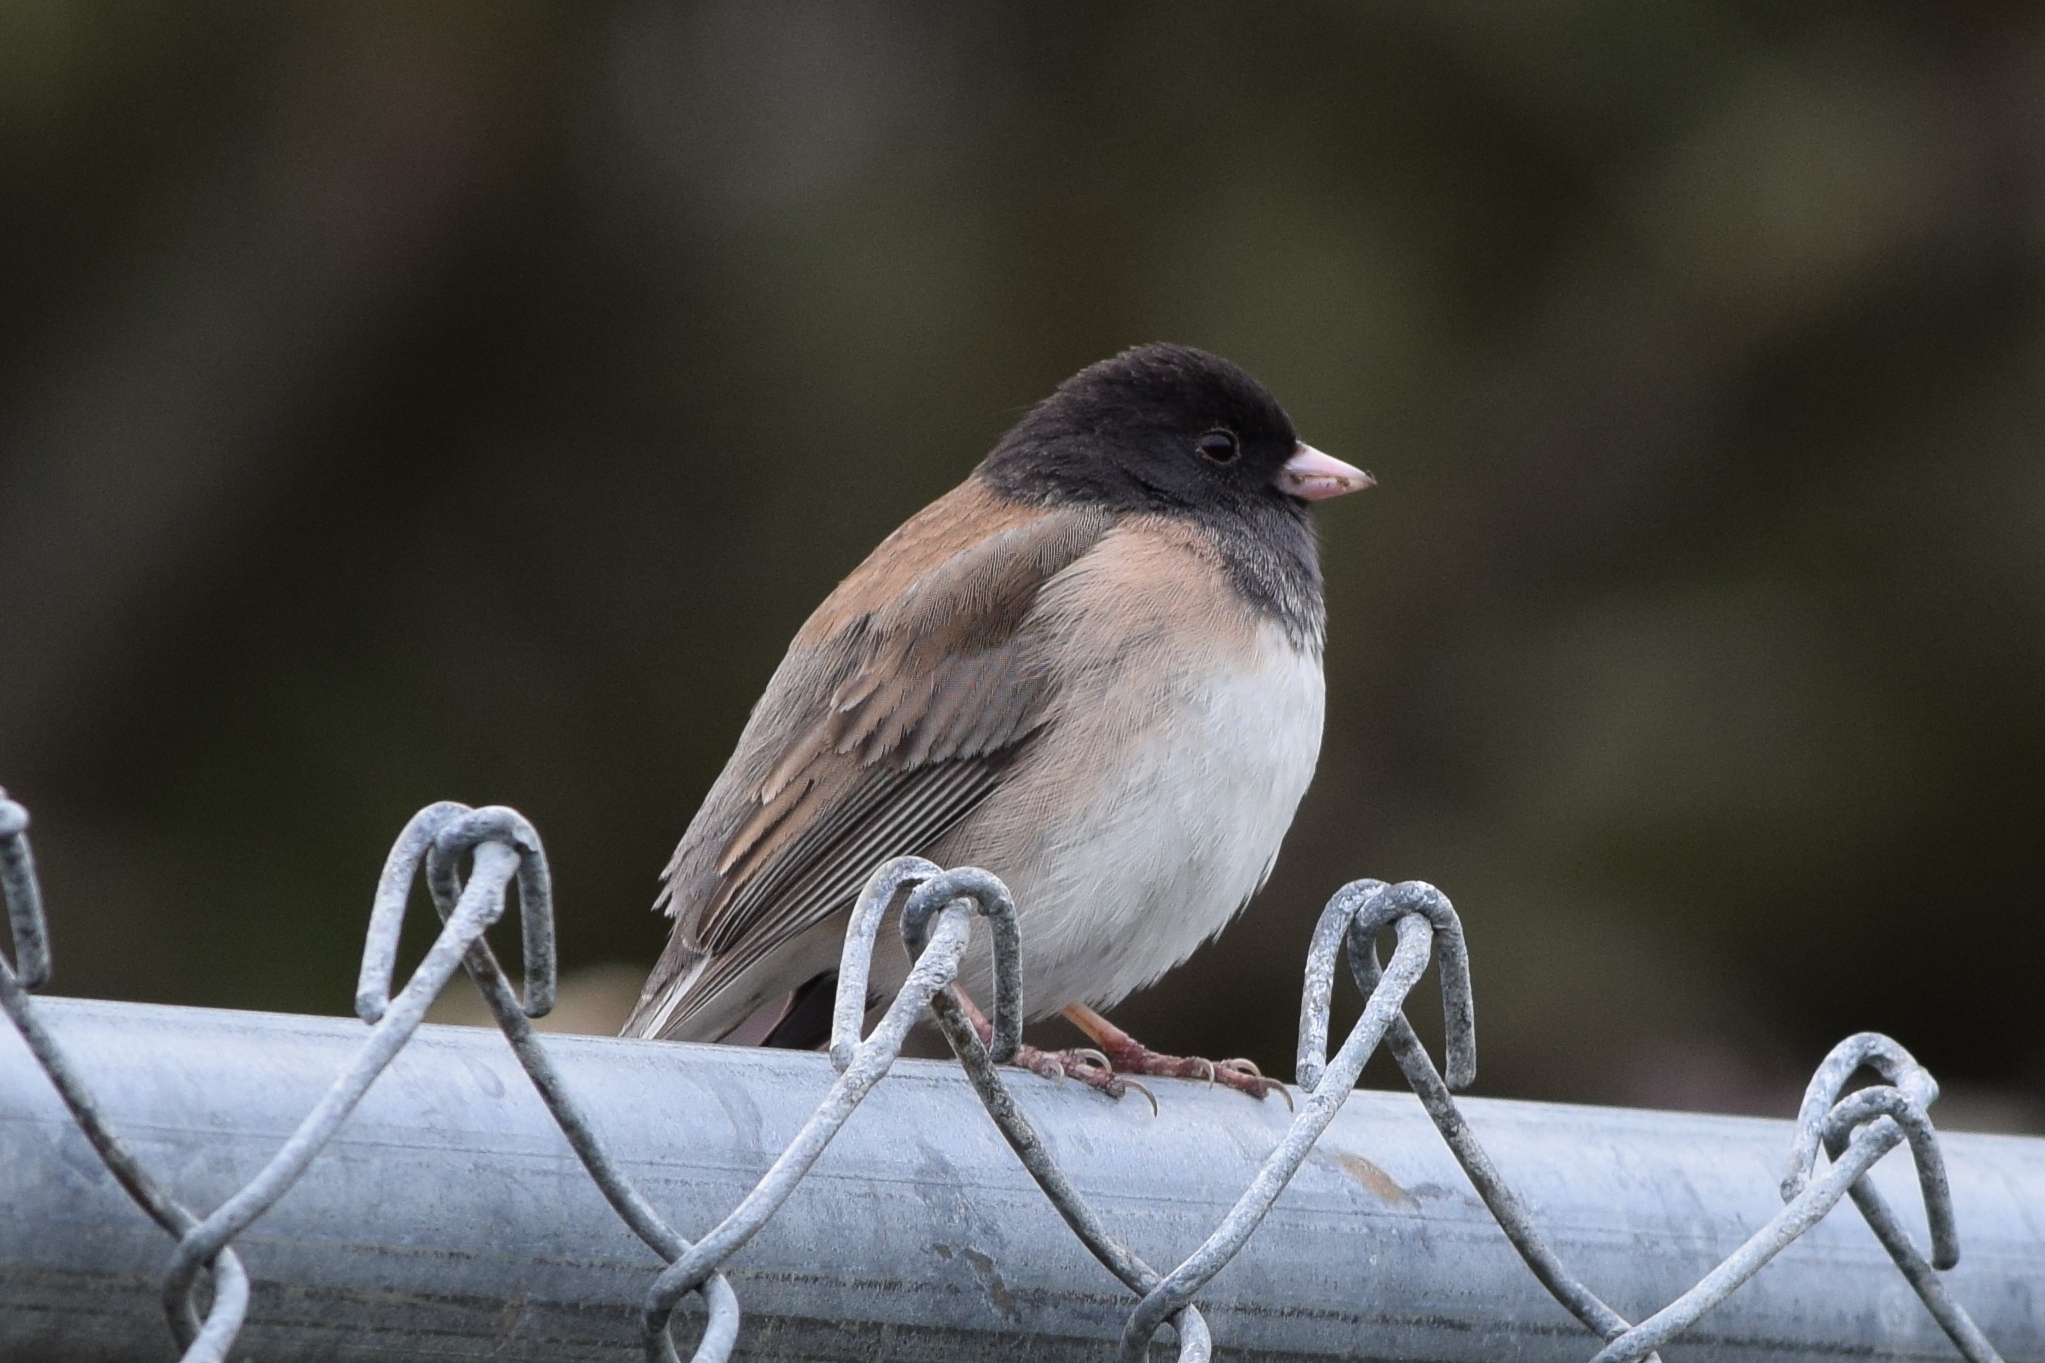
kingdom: Animalia
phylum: Chordata
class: Aves
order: Passeriformes
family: Passerellidae
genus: Junco
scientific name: Junco hyemalis
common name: Dark-eyed junco
